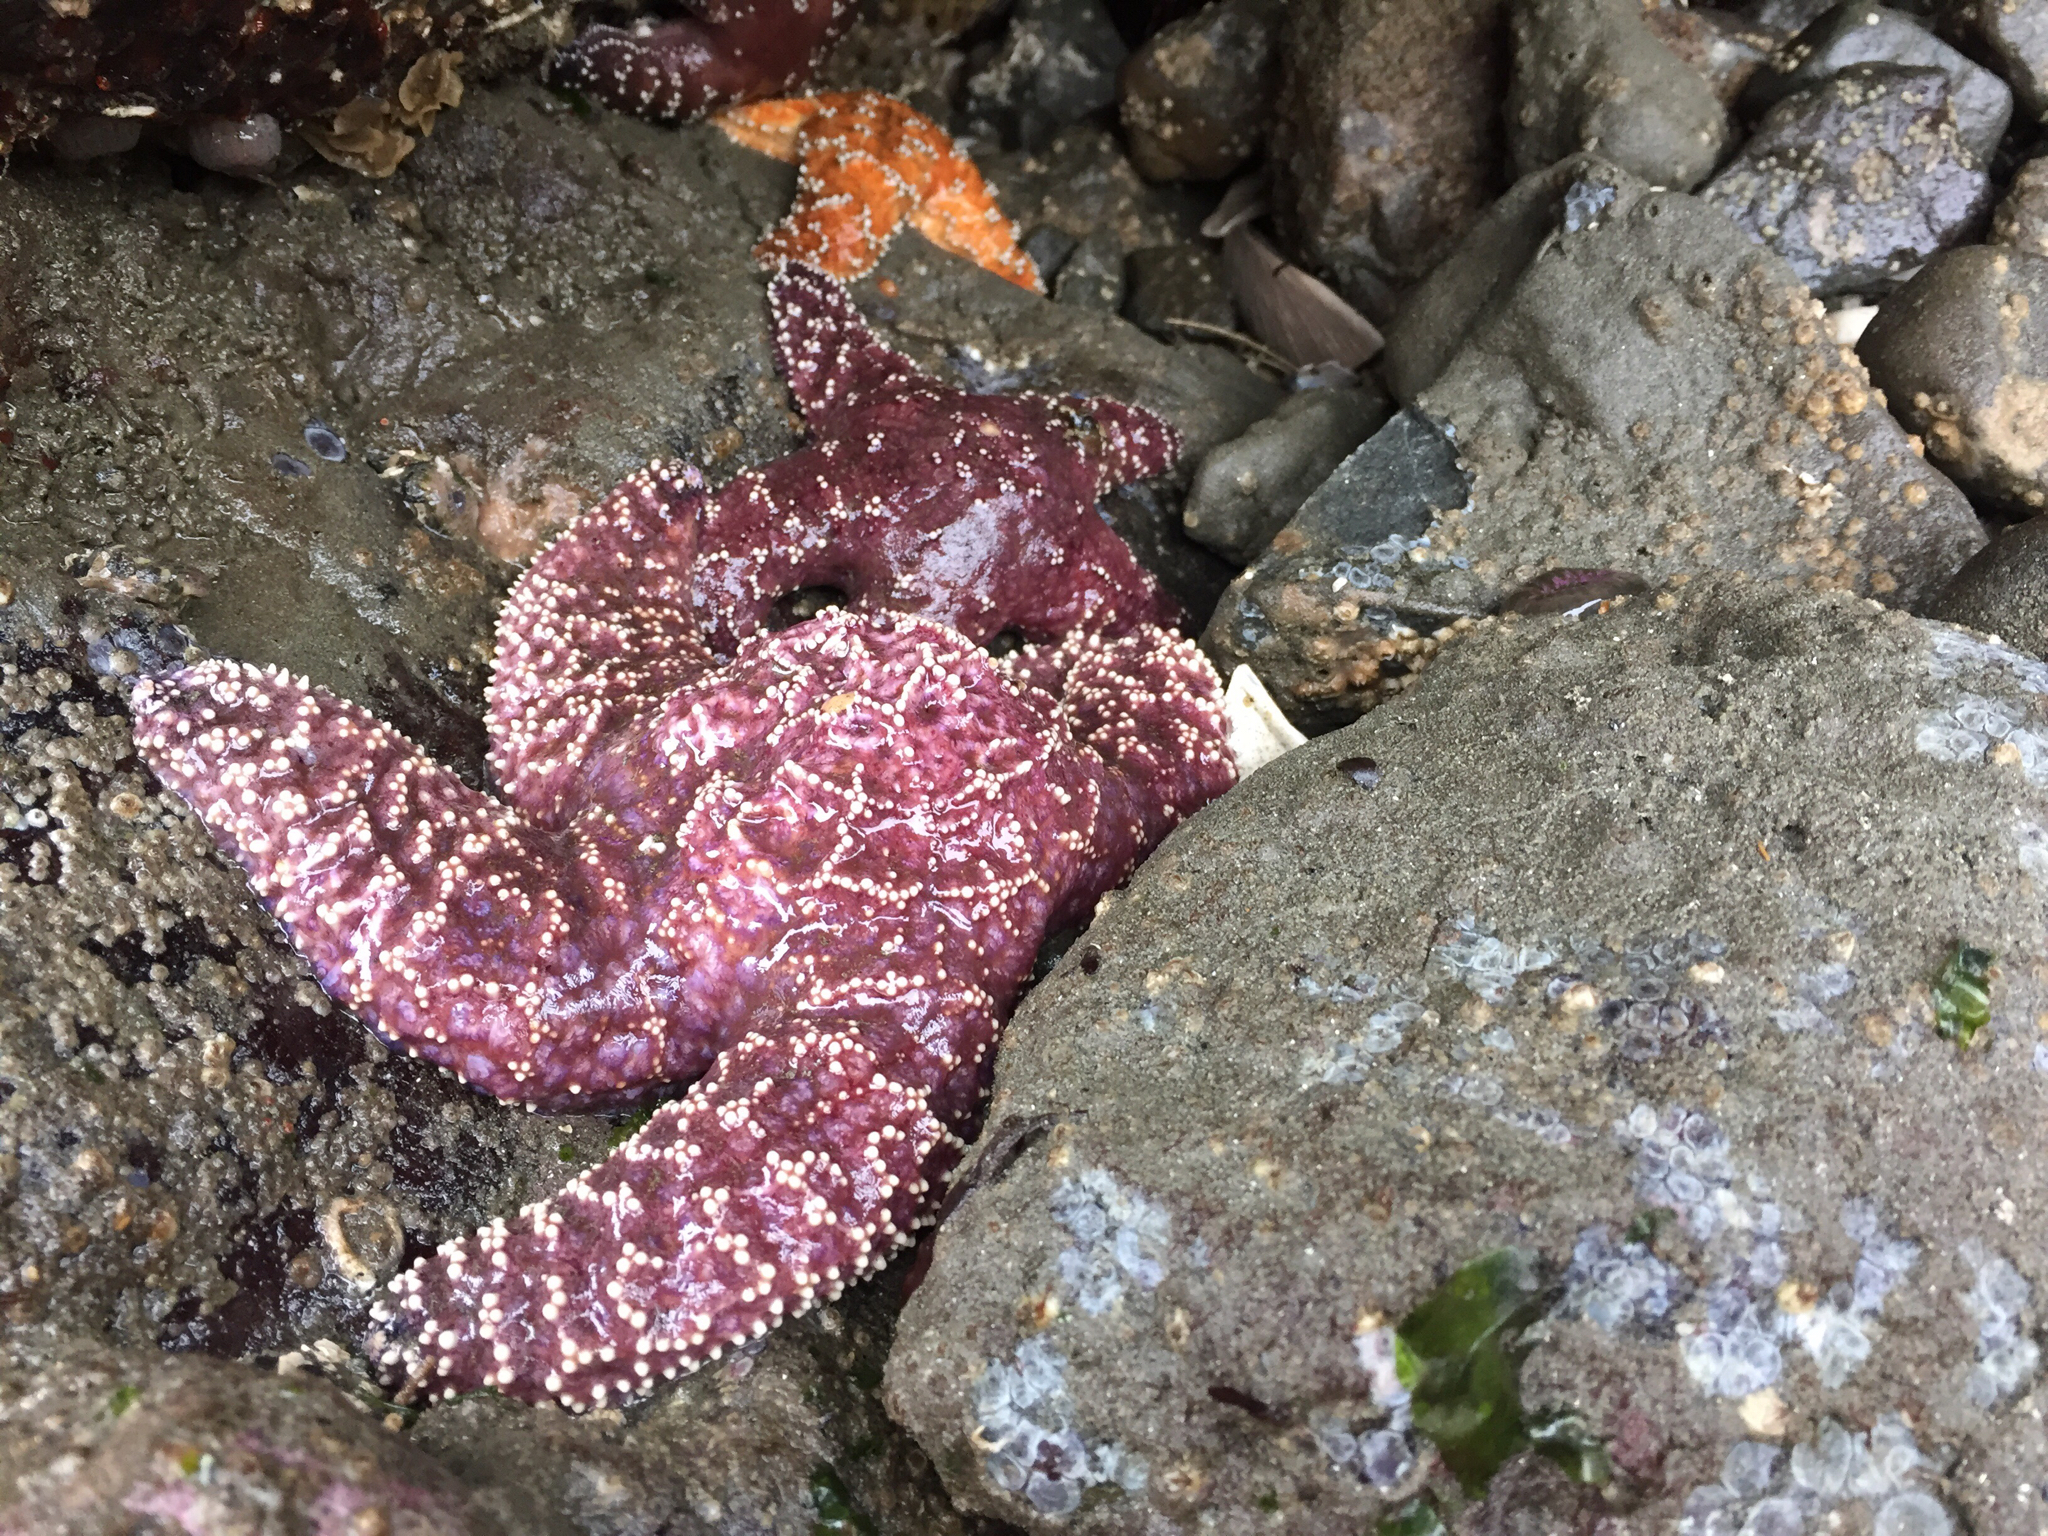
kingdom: Animalia
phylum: Echinodermata
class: Asteroidea
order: Forcipulatida
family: Asteriidae
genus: Pisaster
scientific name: Pisaster ochraceus
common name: Ochre stars
